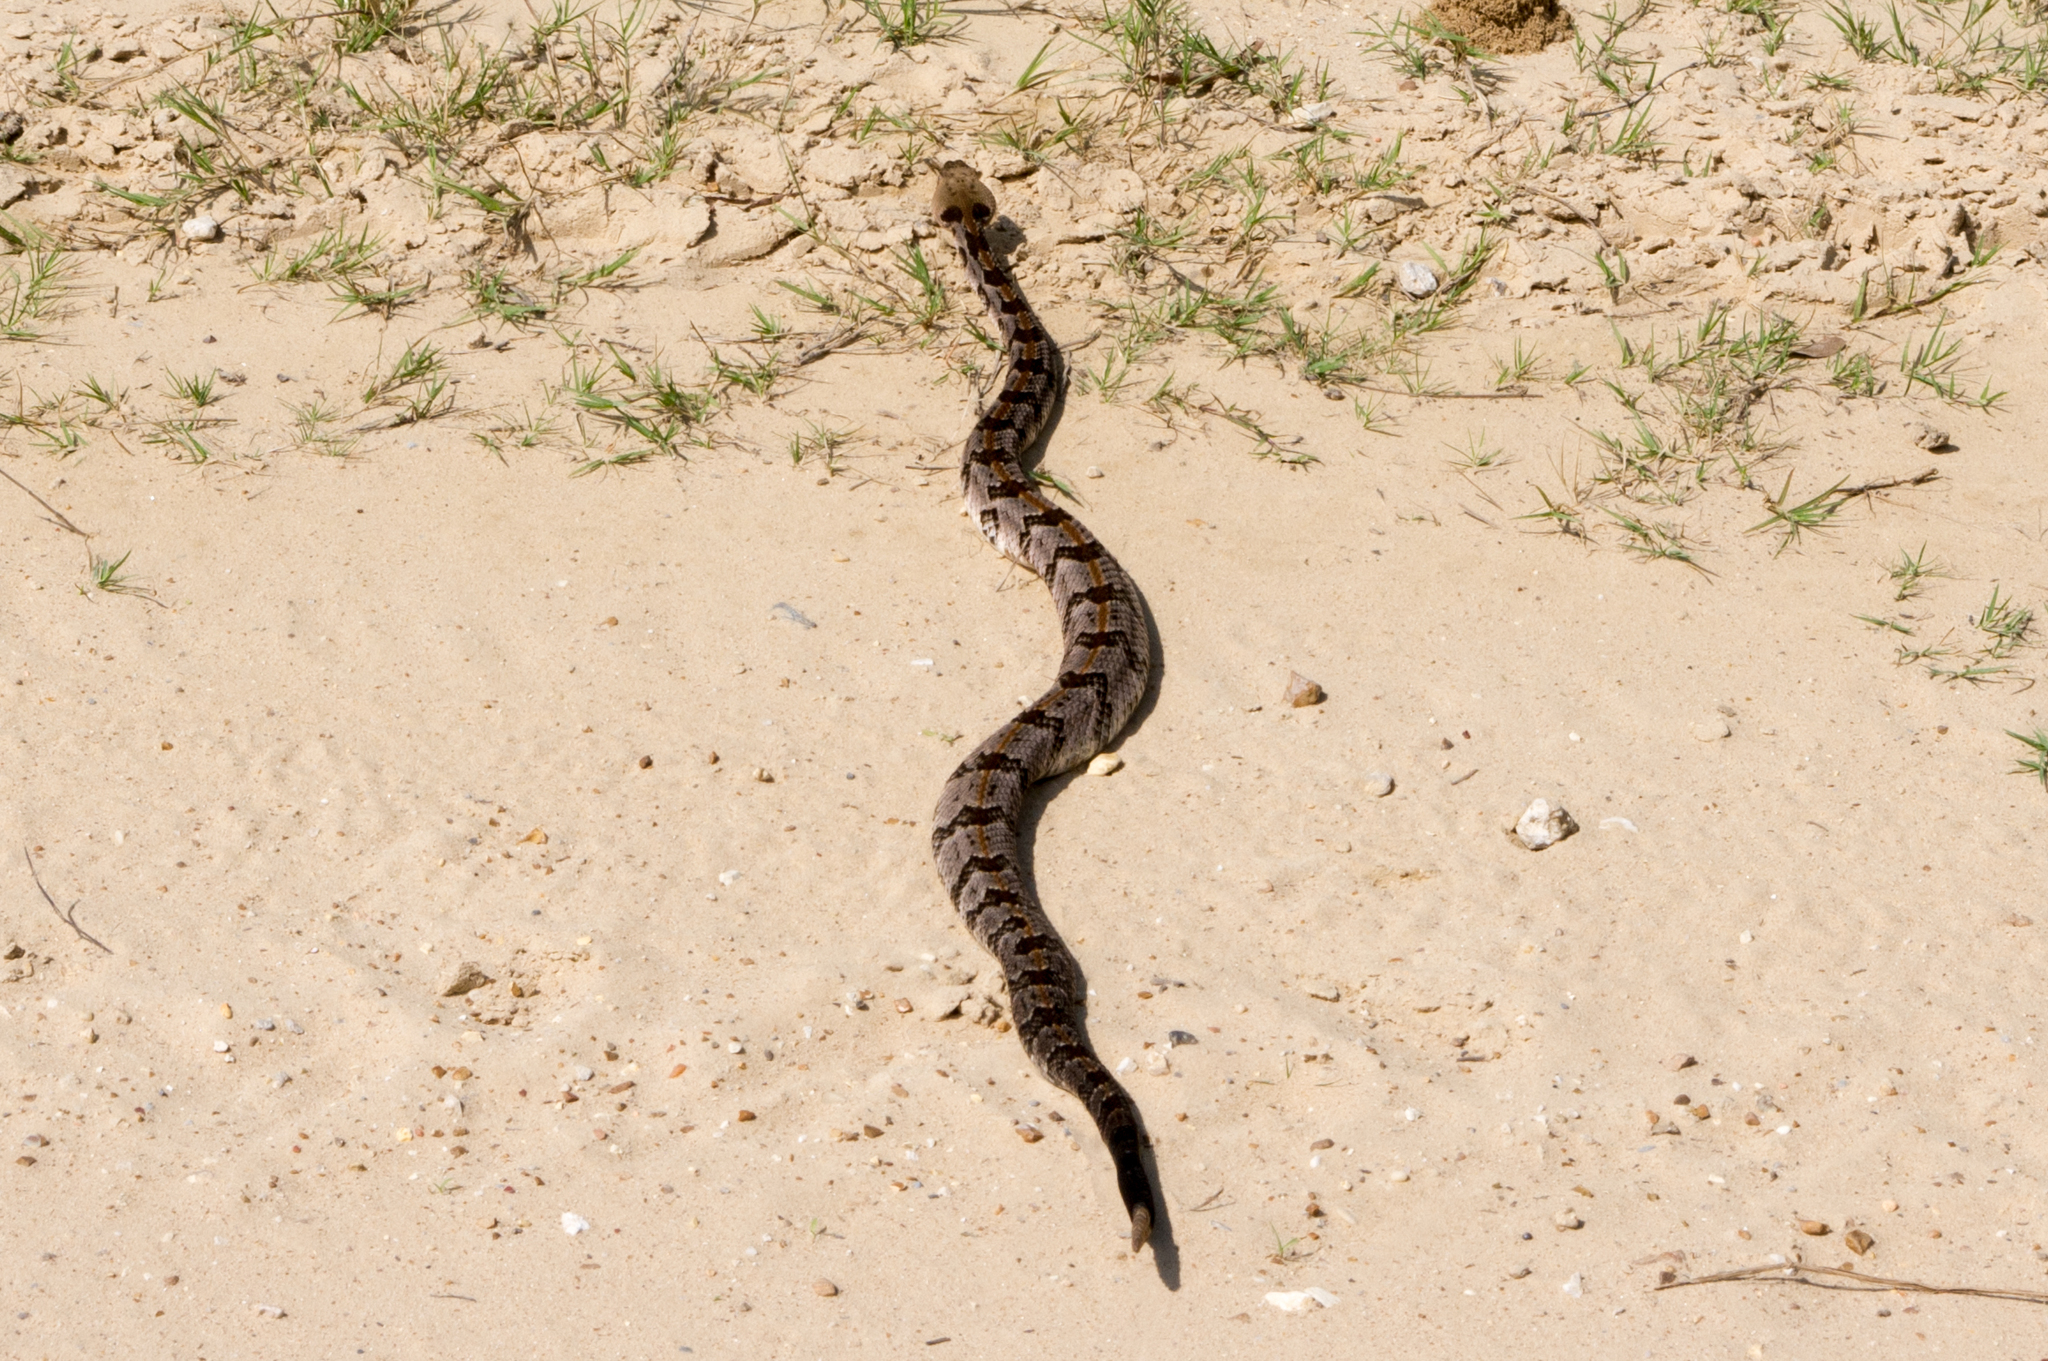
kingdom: Animalia
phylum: Chordata
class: Squamata
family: Viperidae
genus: Crotalus
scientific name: Crotalus horridus
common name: Timber rattlesnake
